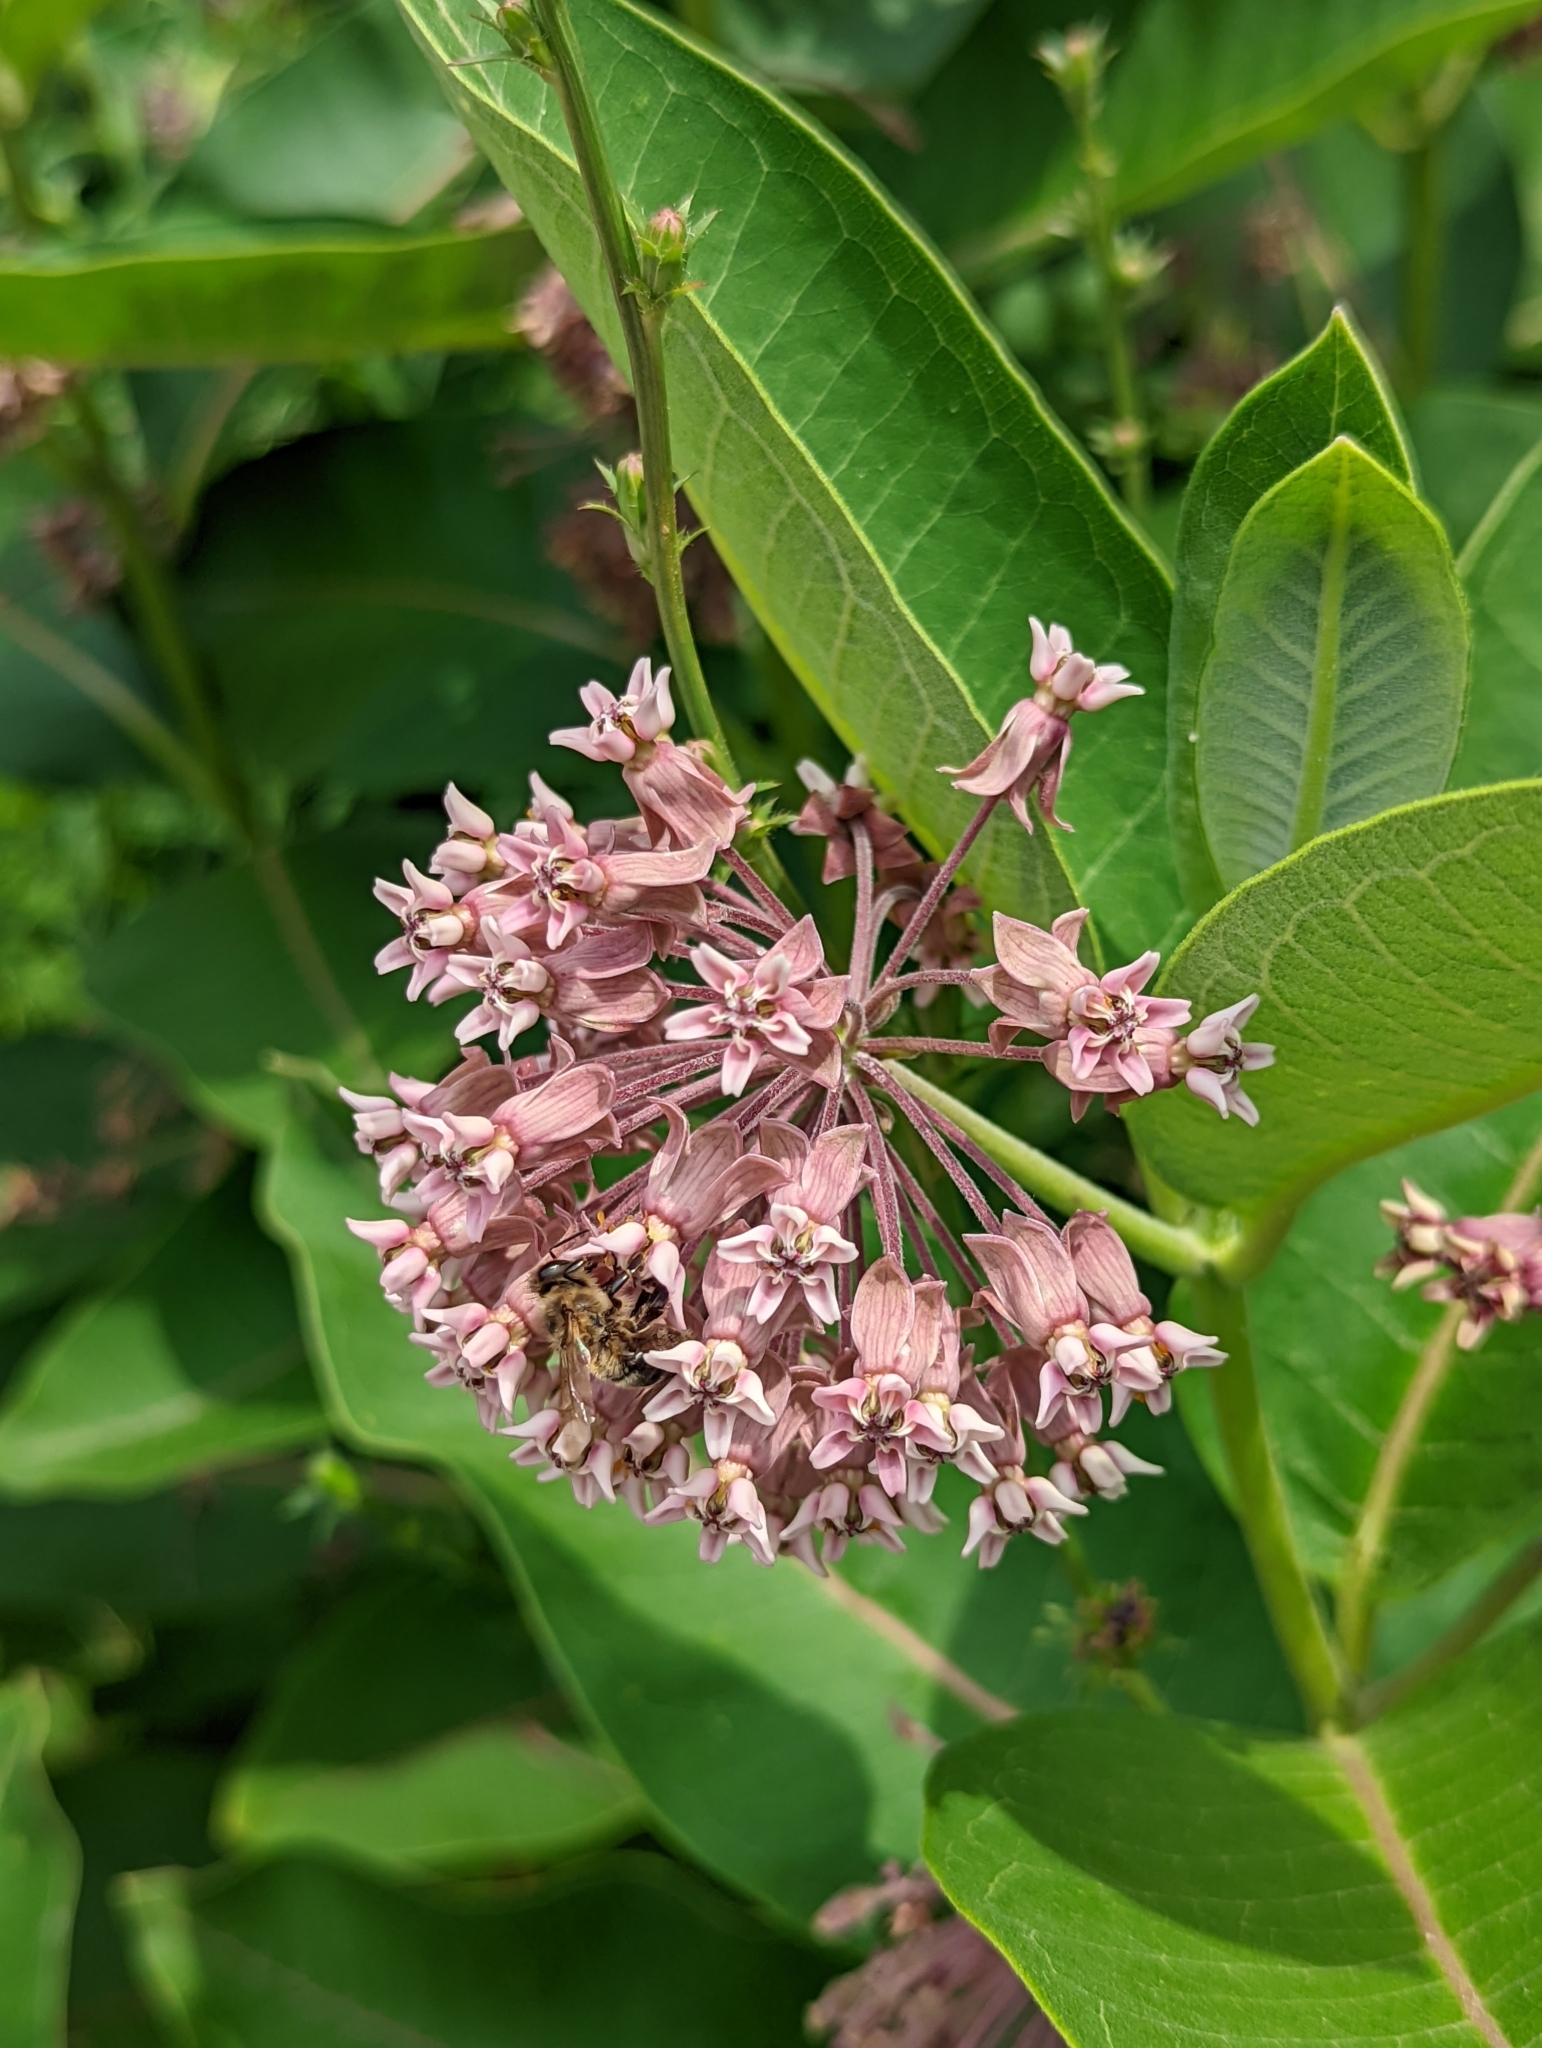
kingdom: Plantae
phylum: Tracheophyta
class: Magnoliopsida
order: Gentianales
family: Apocynaceae
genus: Asclepias
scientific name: Asclepias syriaca
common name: Common milkweed
